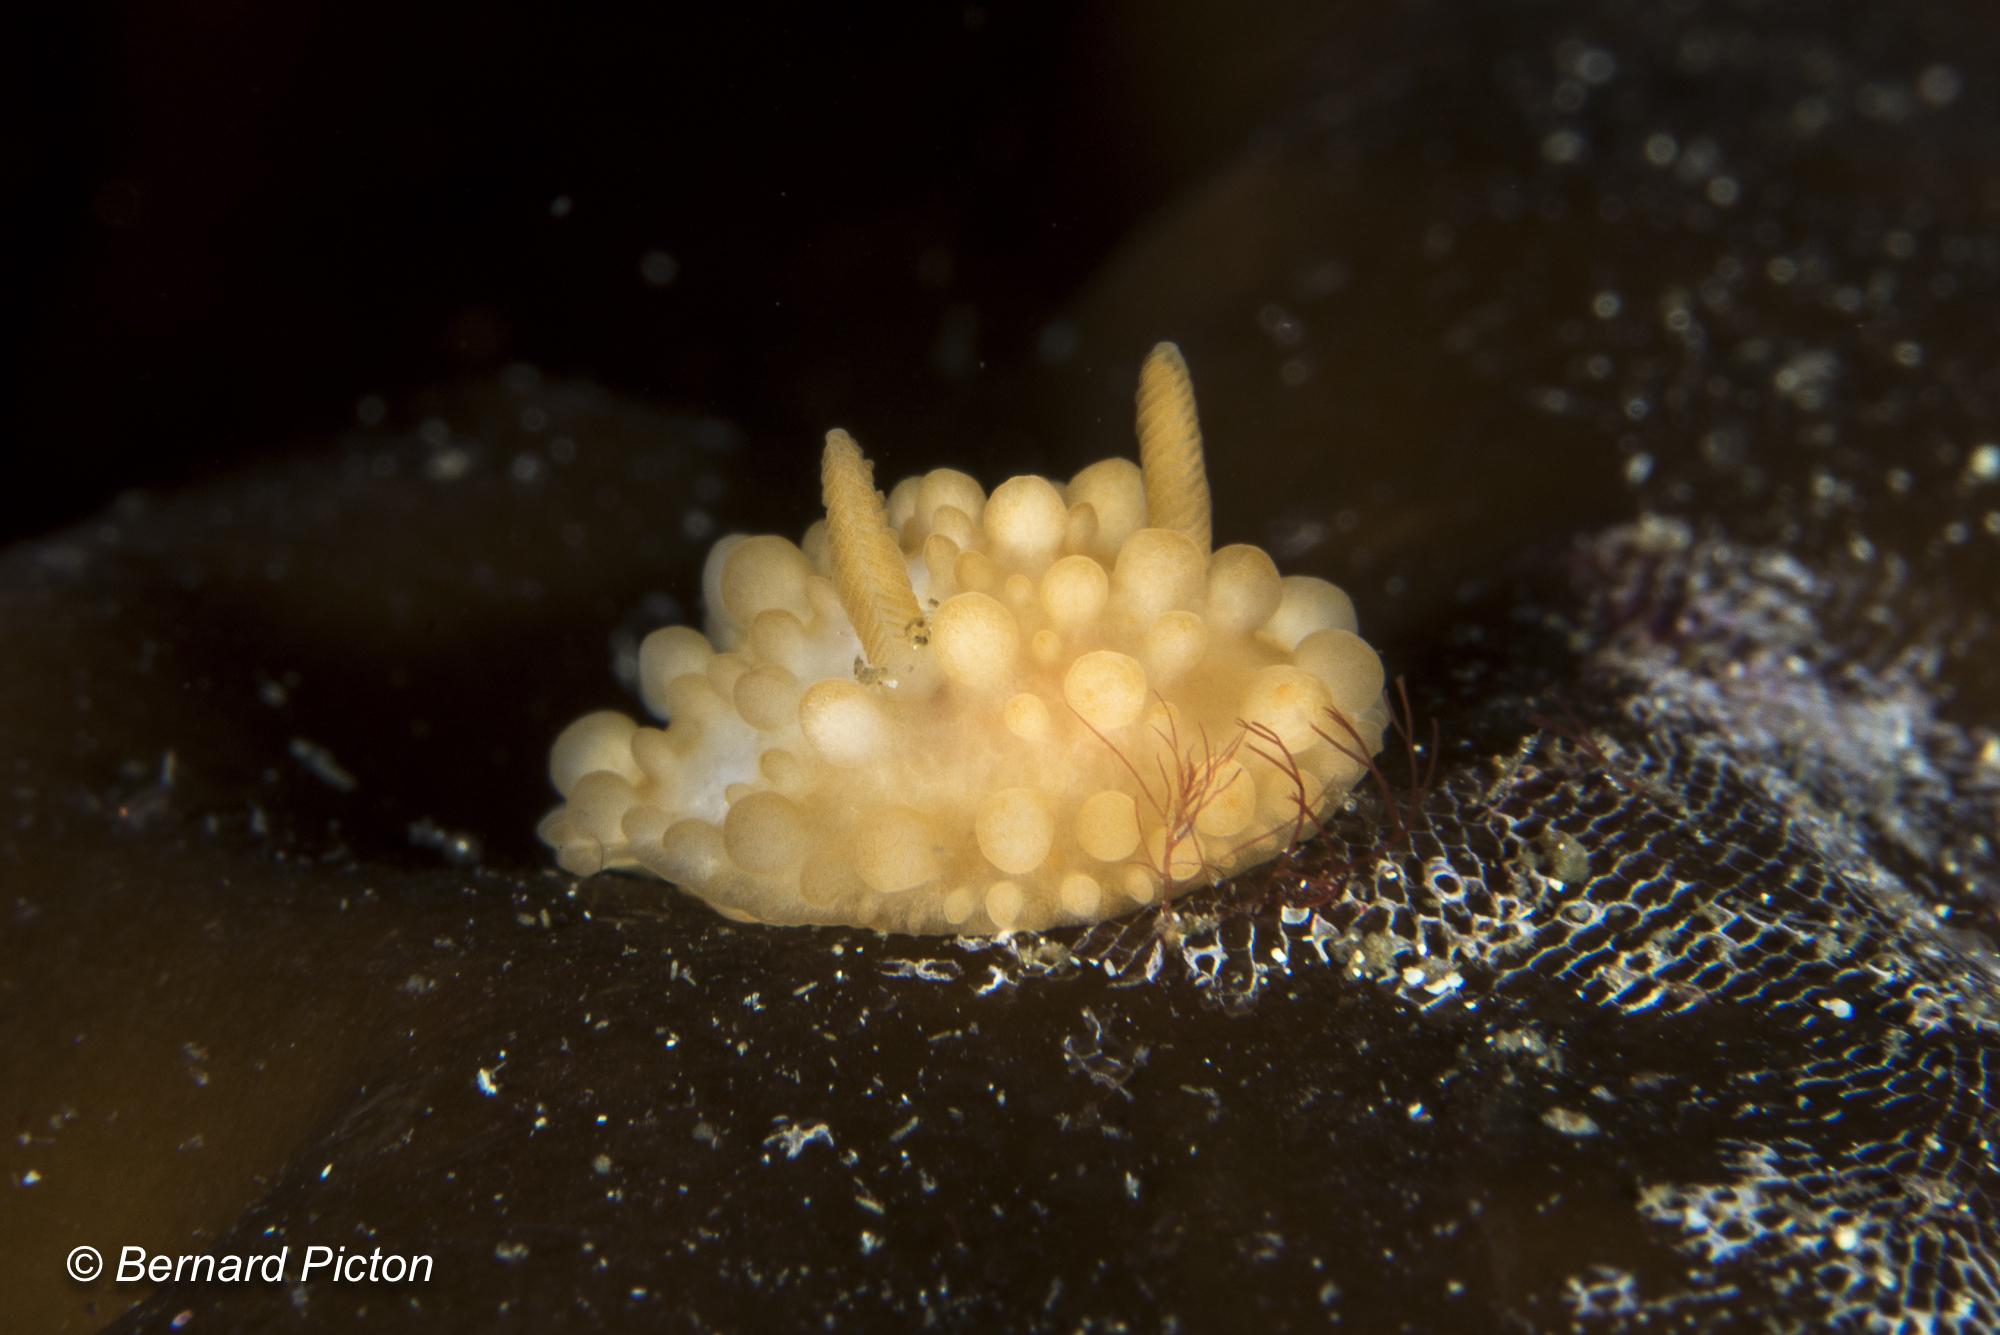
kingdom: Animalia
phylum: Mollusca
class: Gastropoda
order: Nudibranchia
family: Onchidorididae
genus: Adalaria
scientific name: Adalaria loveni
